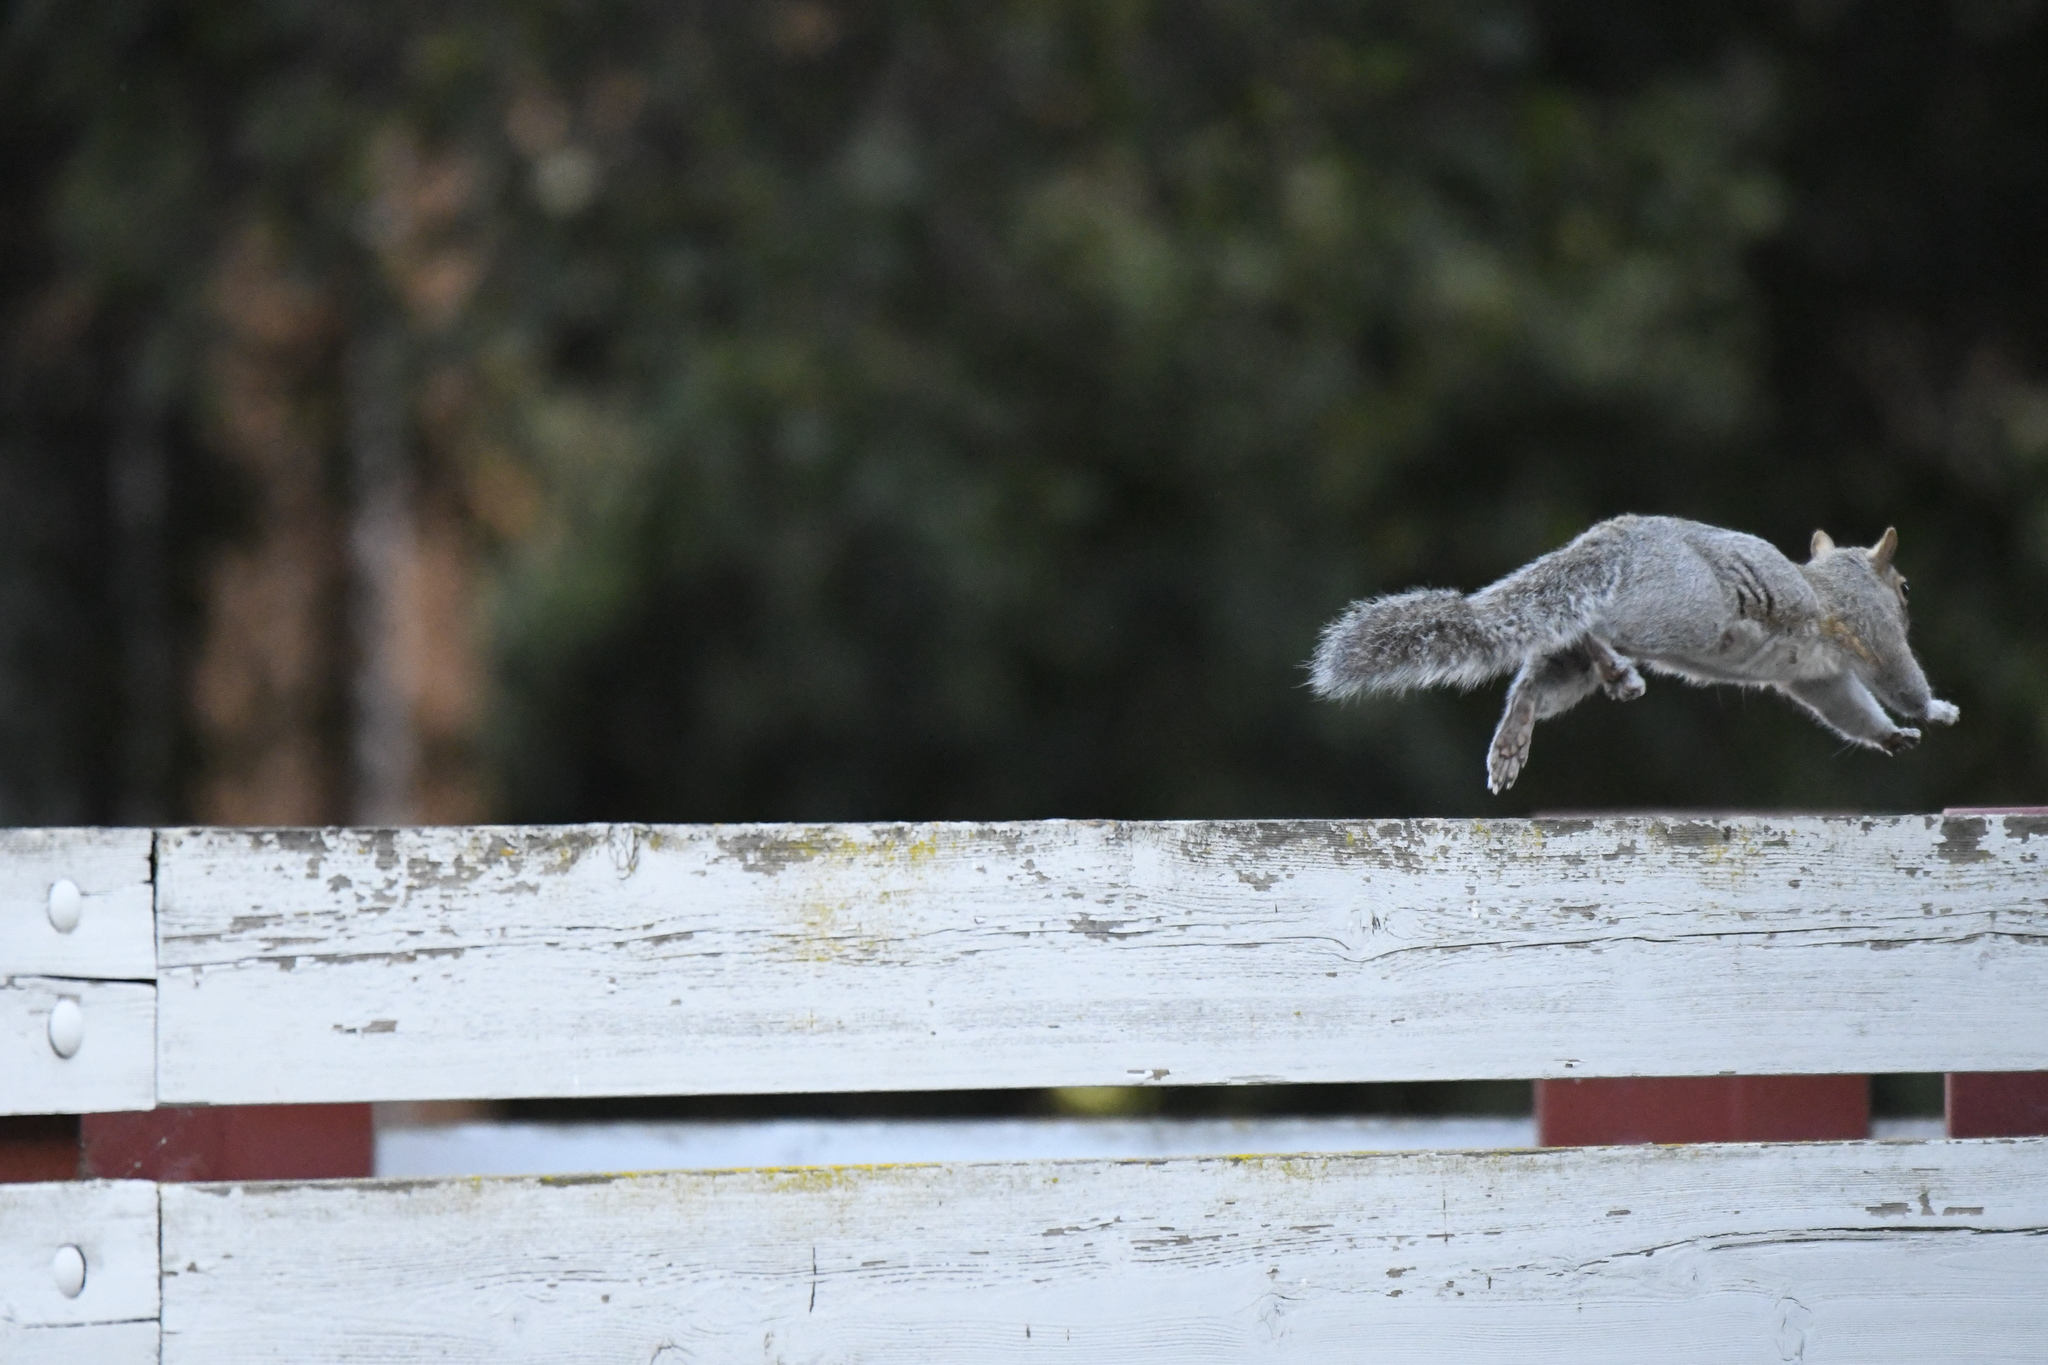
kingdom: Animalia
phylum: Chordata
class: Mammalia
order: Rodentia
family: Sciuridae
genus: Sciurus
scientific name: Sciurus carolinensis
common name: Eastern gray squirrel
